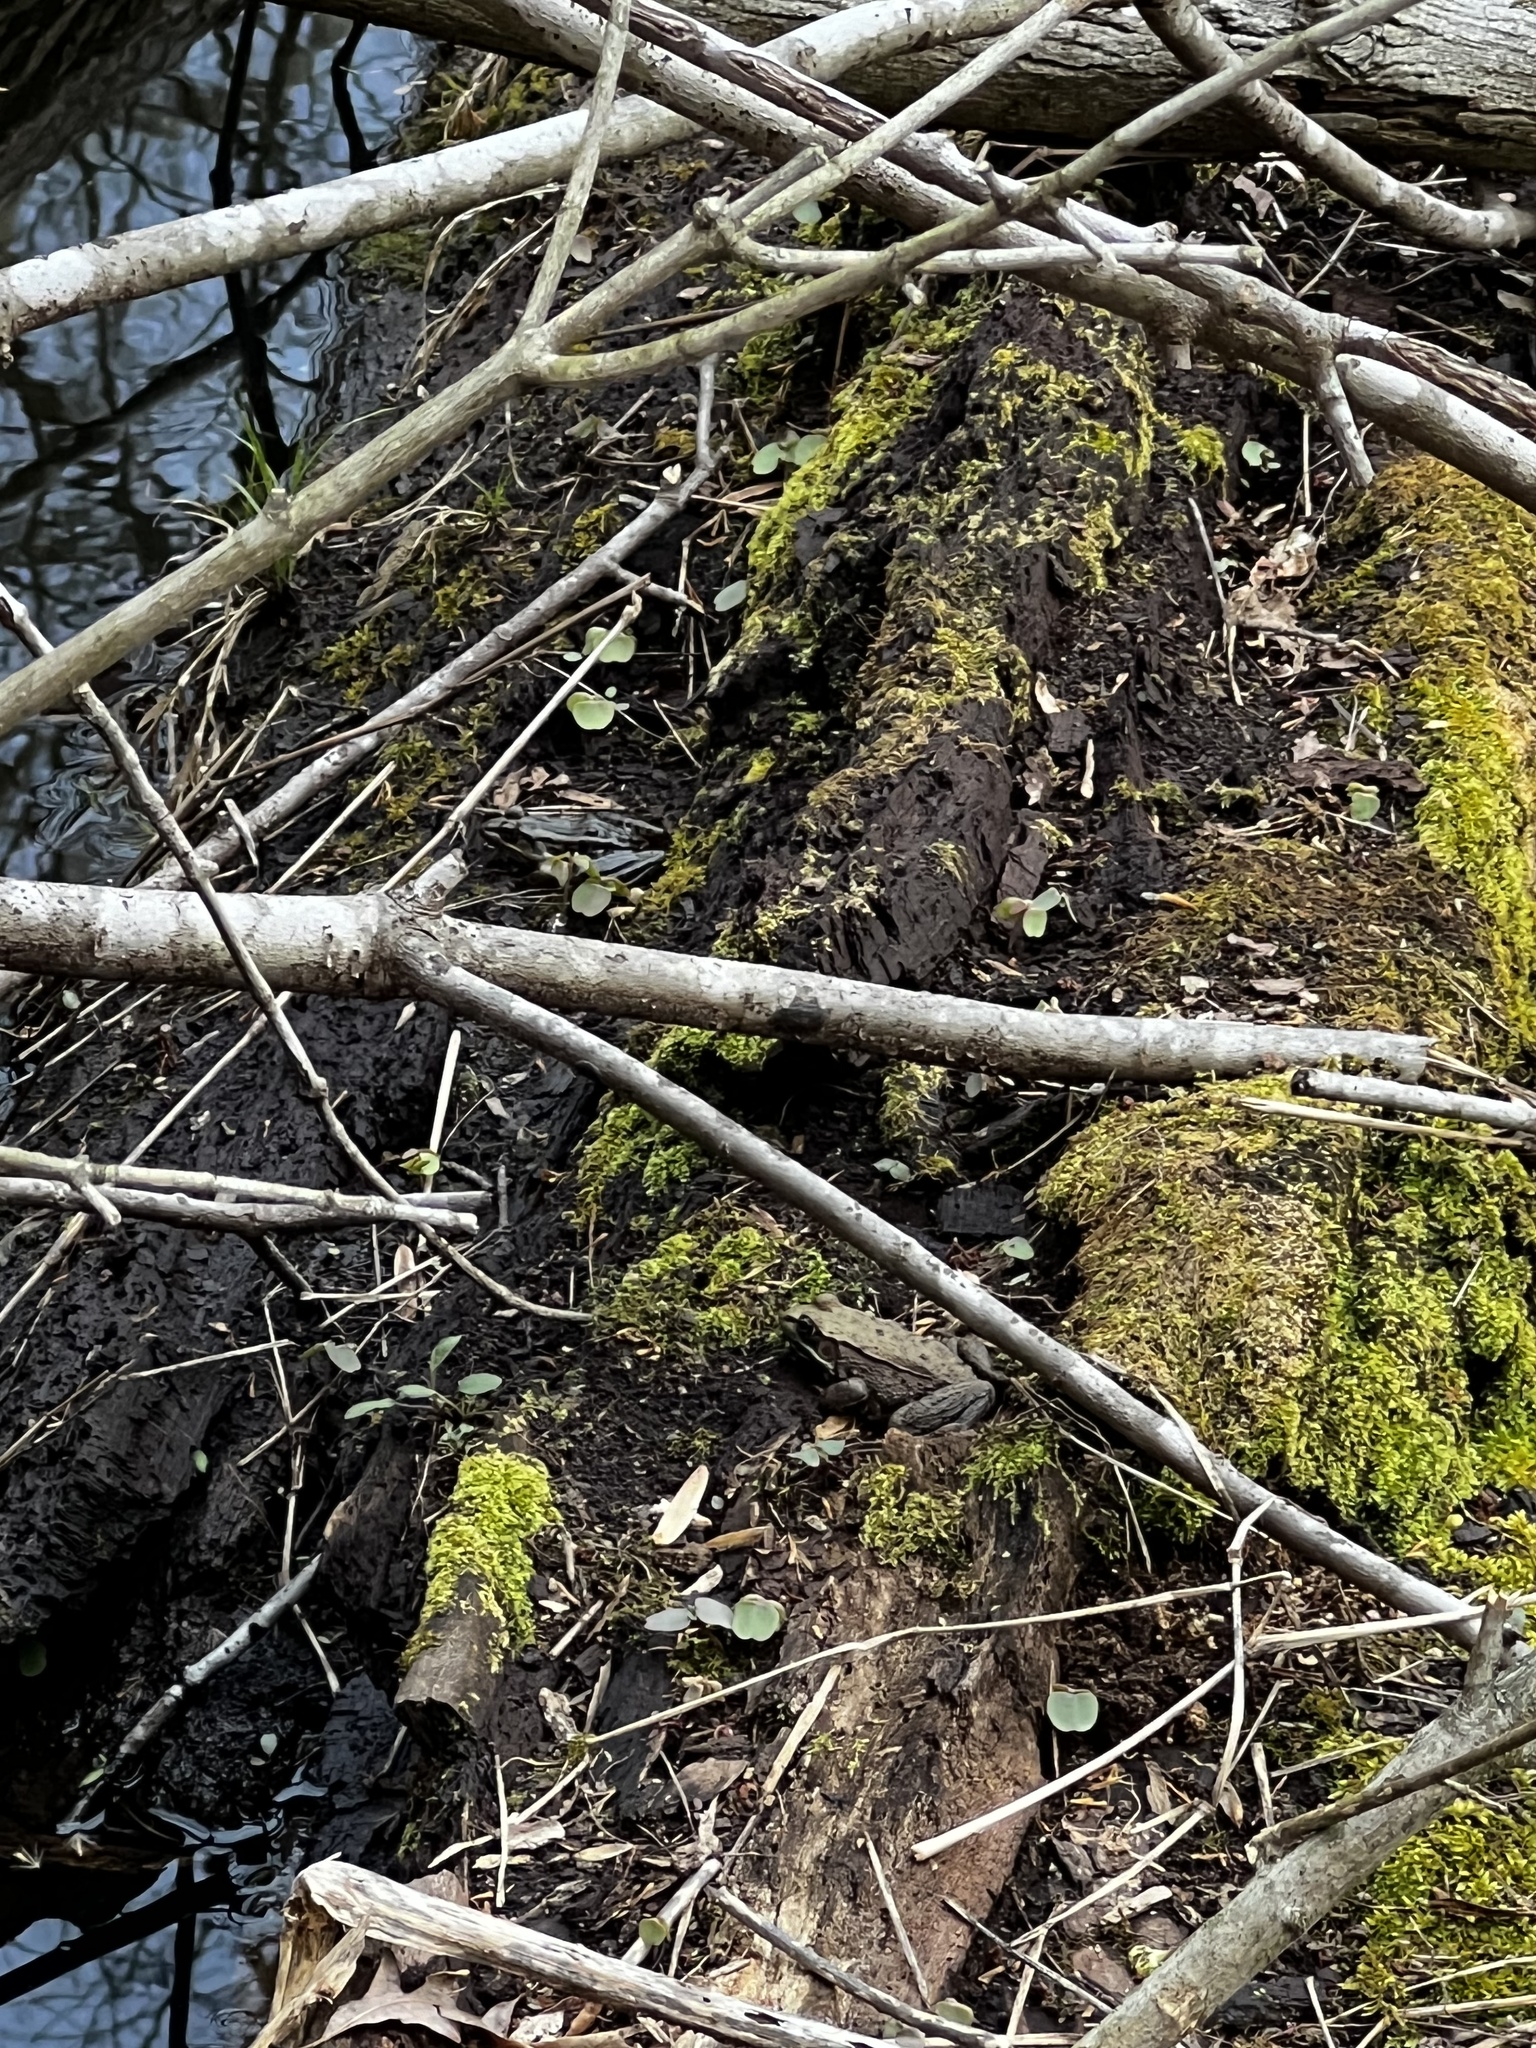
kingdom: Animalia
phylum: Chordata
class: Amphibia
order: Anura
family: Ranidae
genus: Lithobates
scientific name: Lithobates clamitans
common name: Green frog
